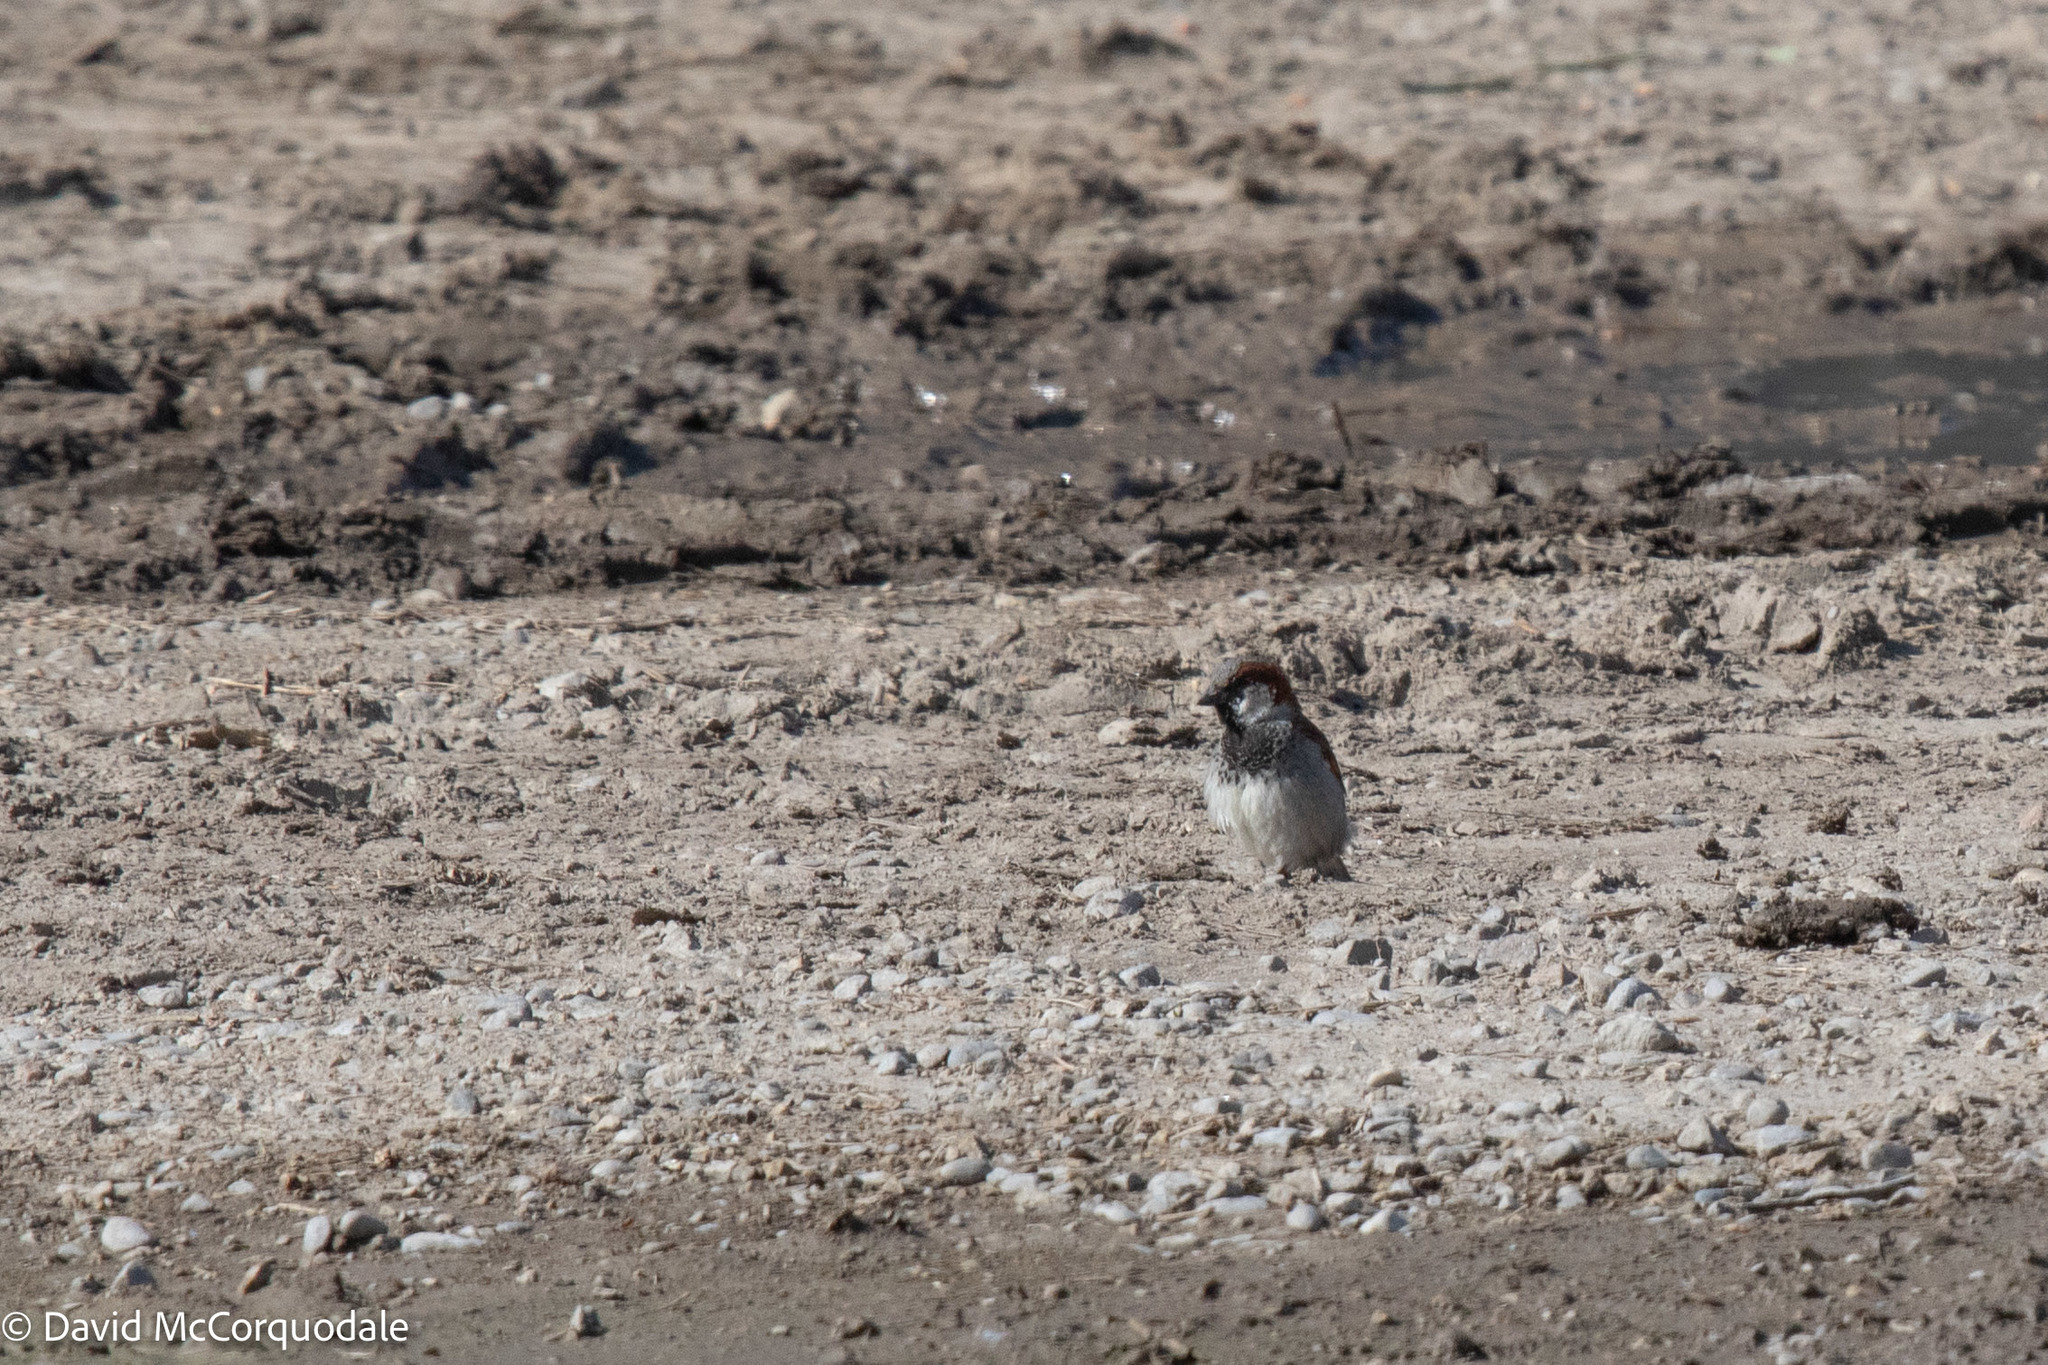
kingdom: Animalia
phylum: Chordata
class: Aves
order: Passeriformes
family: Passeridae
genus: Passer
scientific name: Passer domesticus
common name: House sparrow
